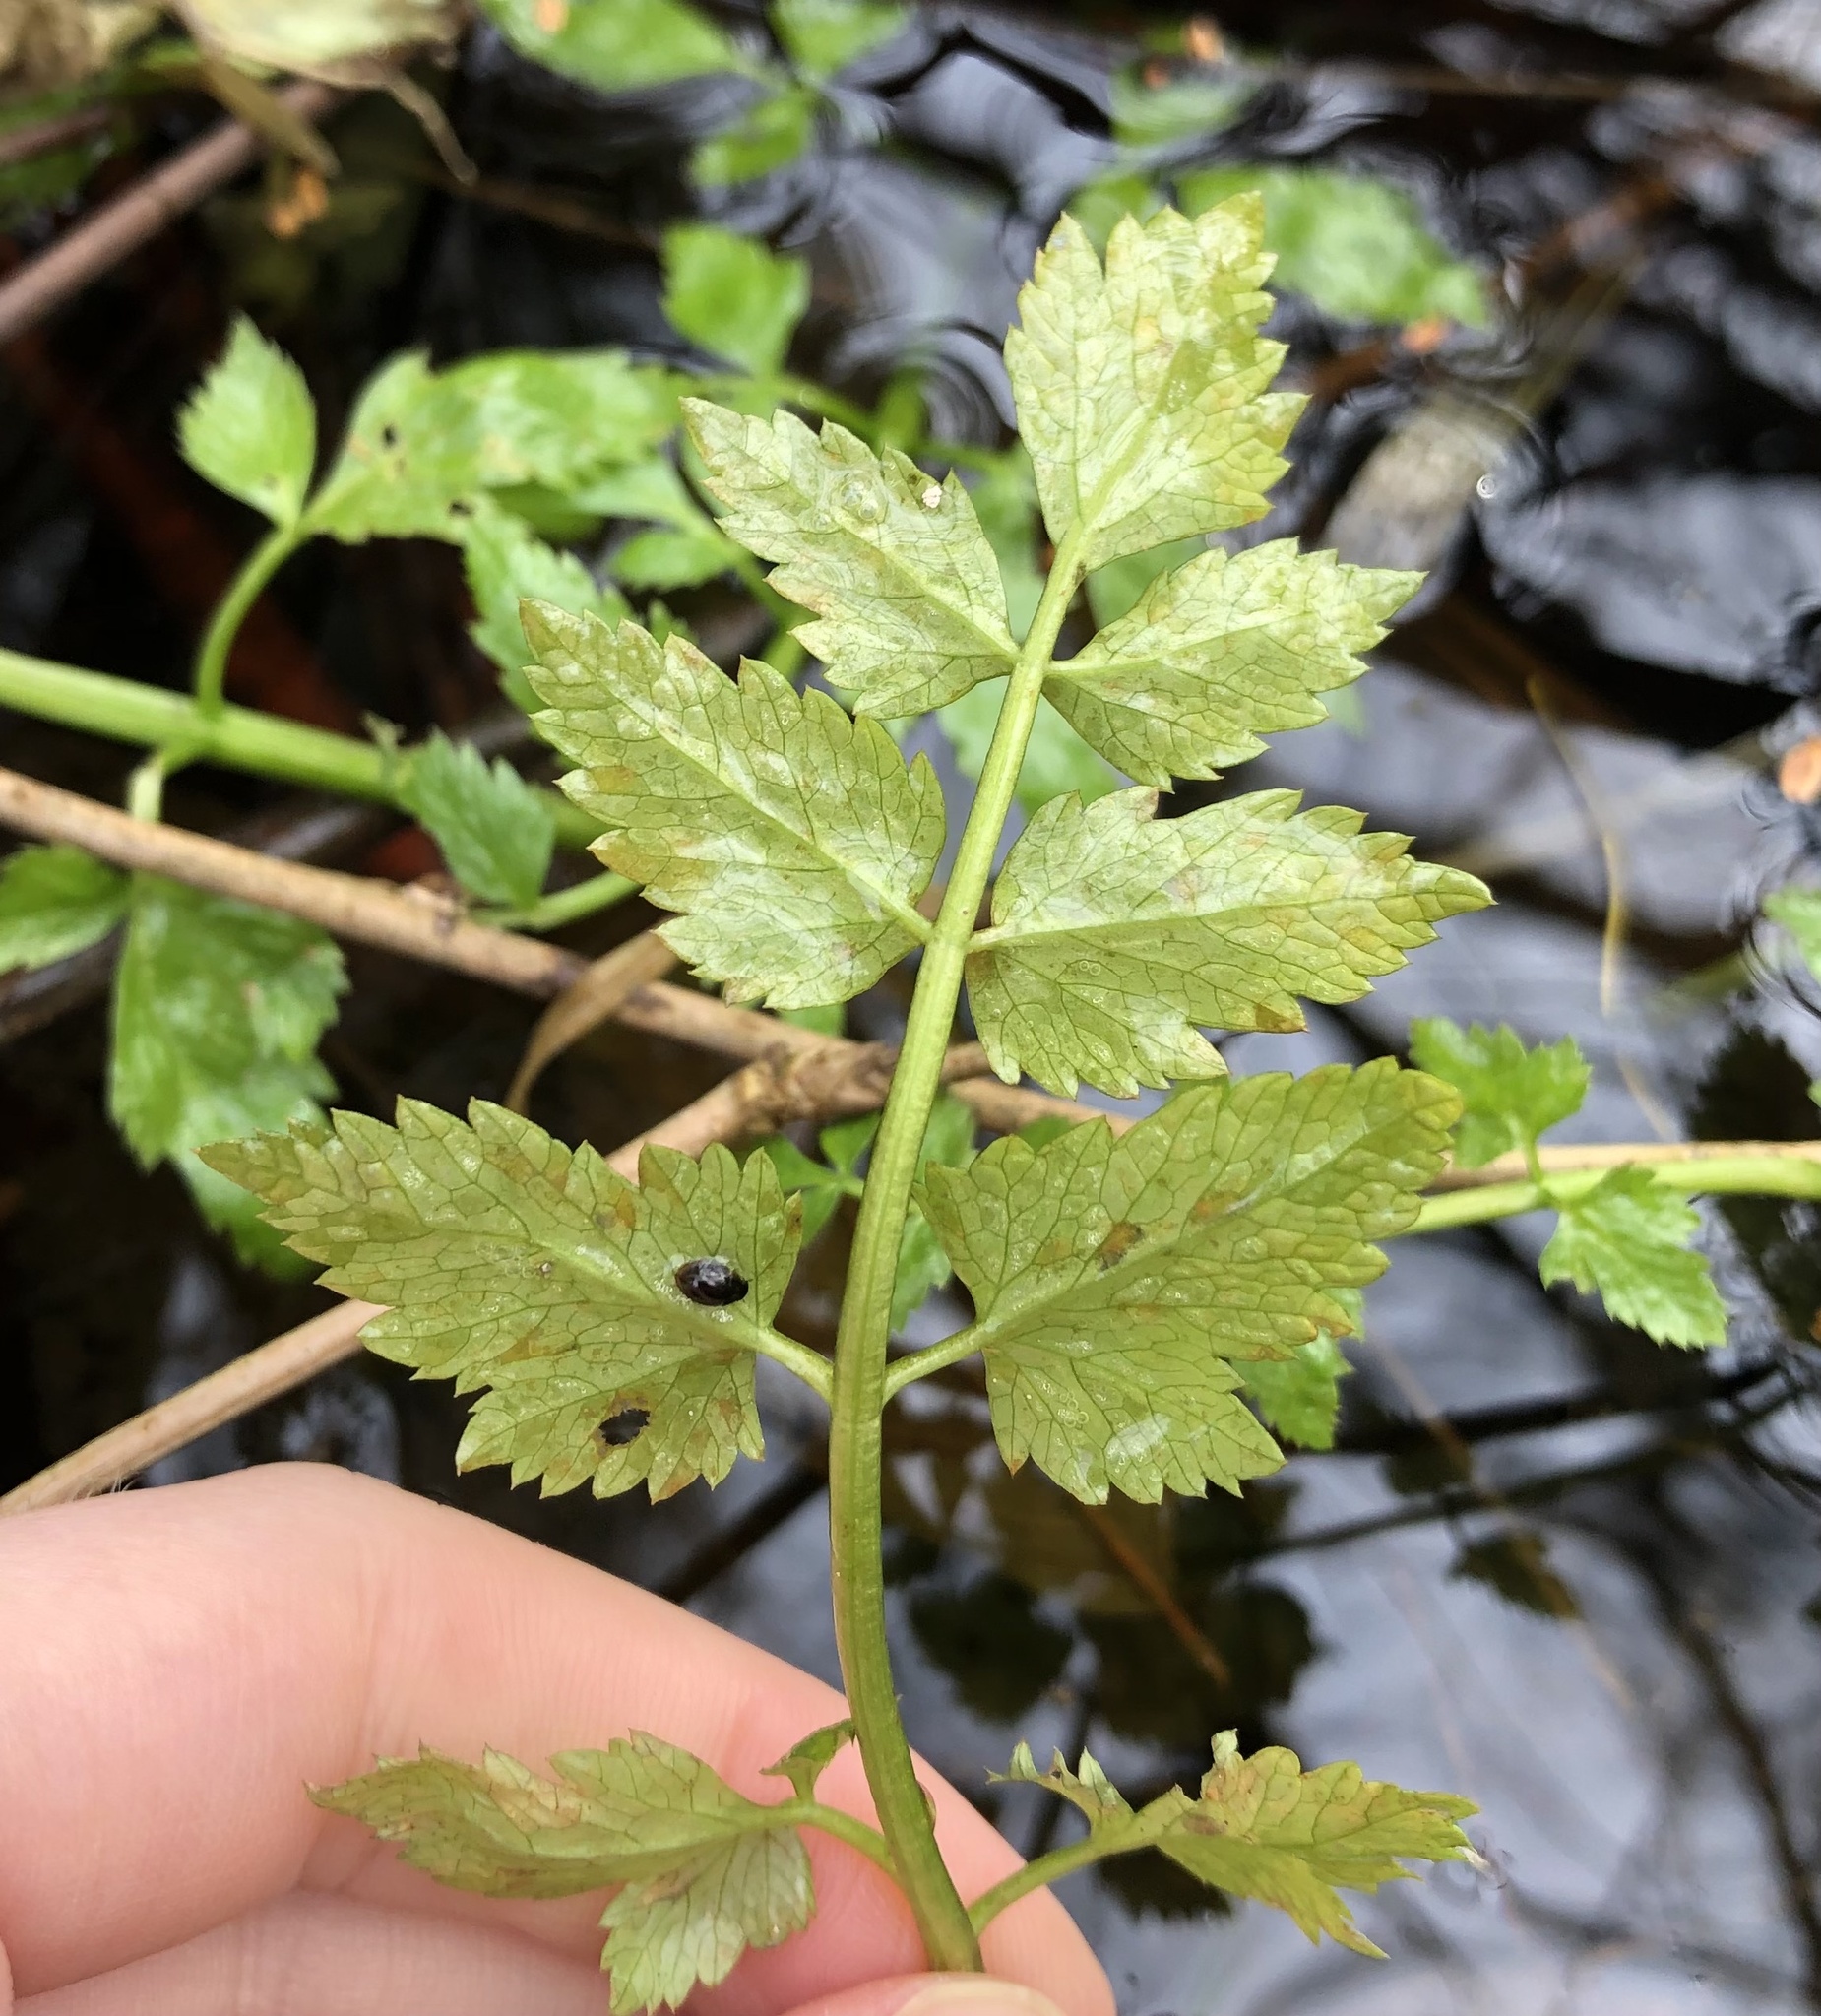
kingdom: Plantae
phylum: Tracheophyta
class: Magnoliopsida
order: Apiales
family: Apiaceae
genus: Oenanthe
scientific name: Oenanthe sarmentosa
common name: American water-parsley
